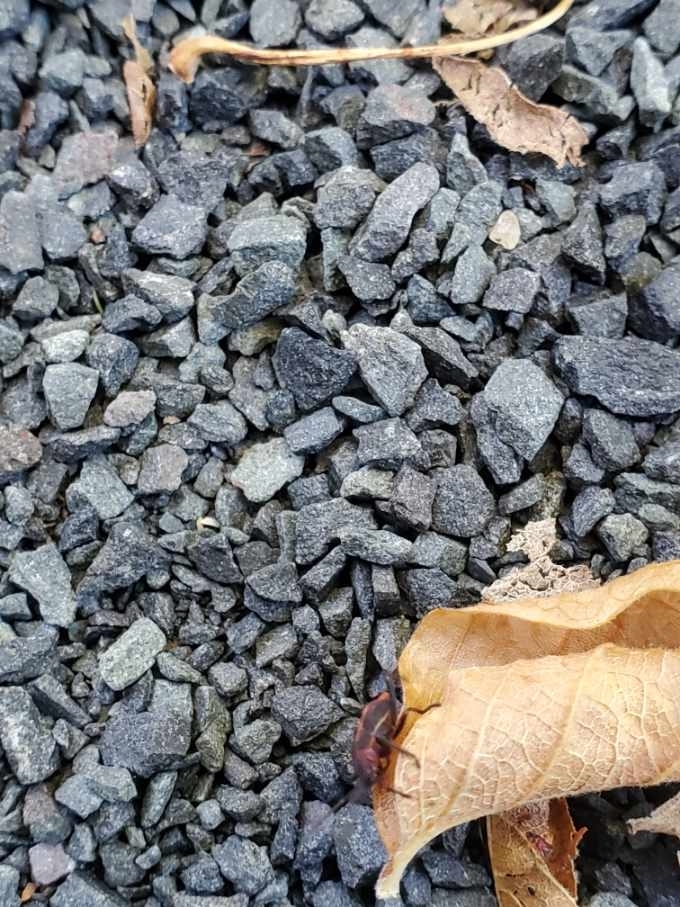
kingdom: Animalia
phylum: Arthropoda
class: Insecta
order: Hemiptera
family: Rhopalidae
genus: Boisea
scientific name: Boisea trivittata
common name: Boxelder bug
